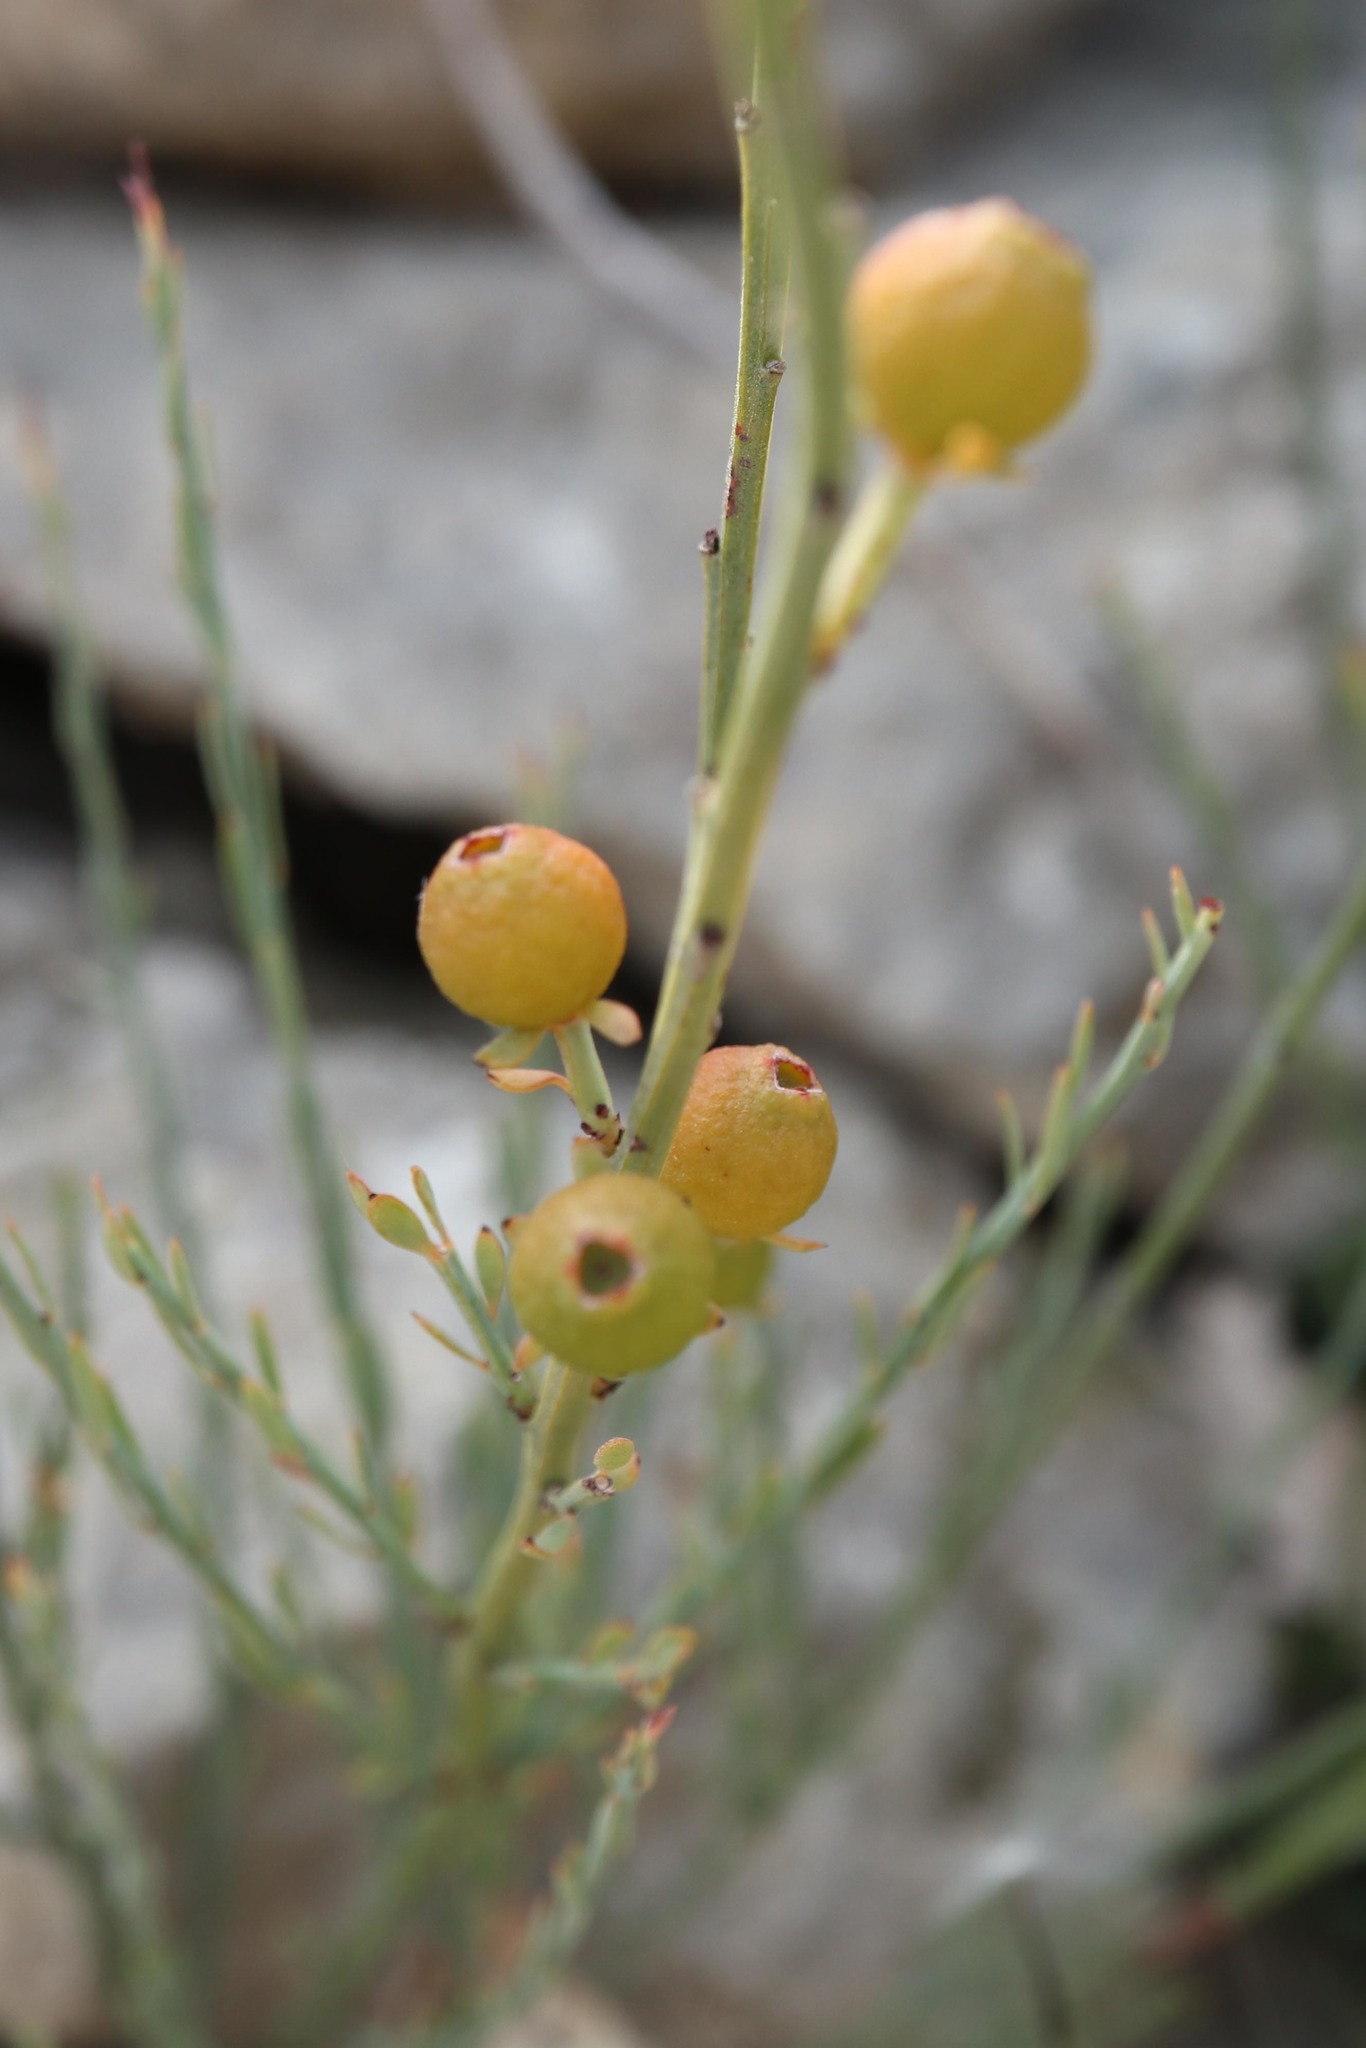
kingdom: Plantae
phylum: Tracheophyta
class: Magnoliopsida
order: Santalales
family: Santalaceae
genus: Osyris
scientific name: Osyris alba
